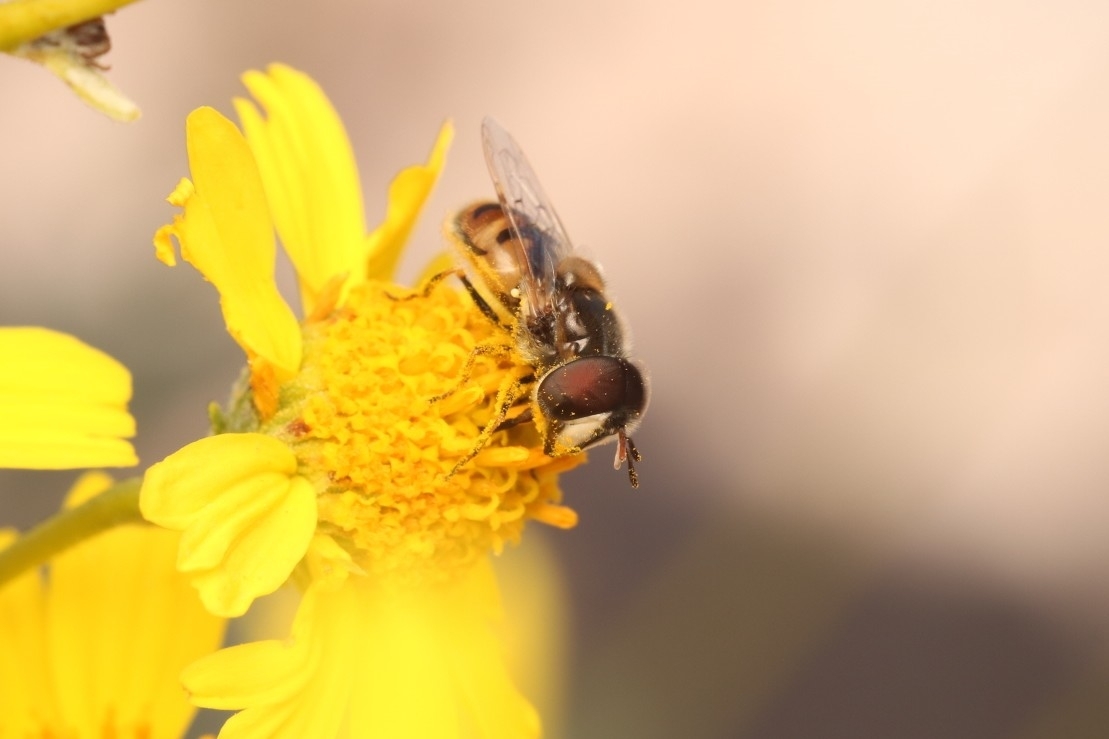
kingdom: Animalia
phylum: Arthropoda
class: Insecta
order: Diptera
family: Syrphidae
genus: Copestylum
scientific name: Copestylum marginatum
